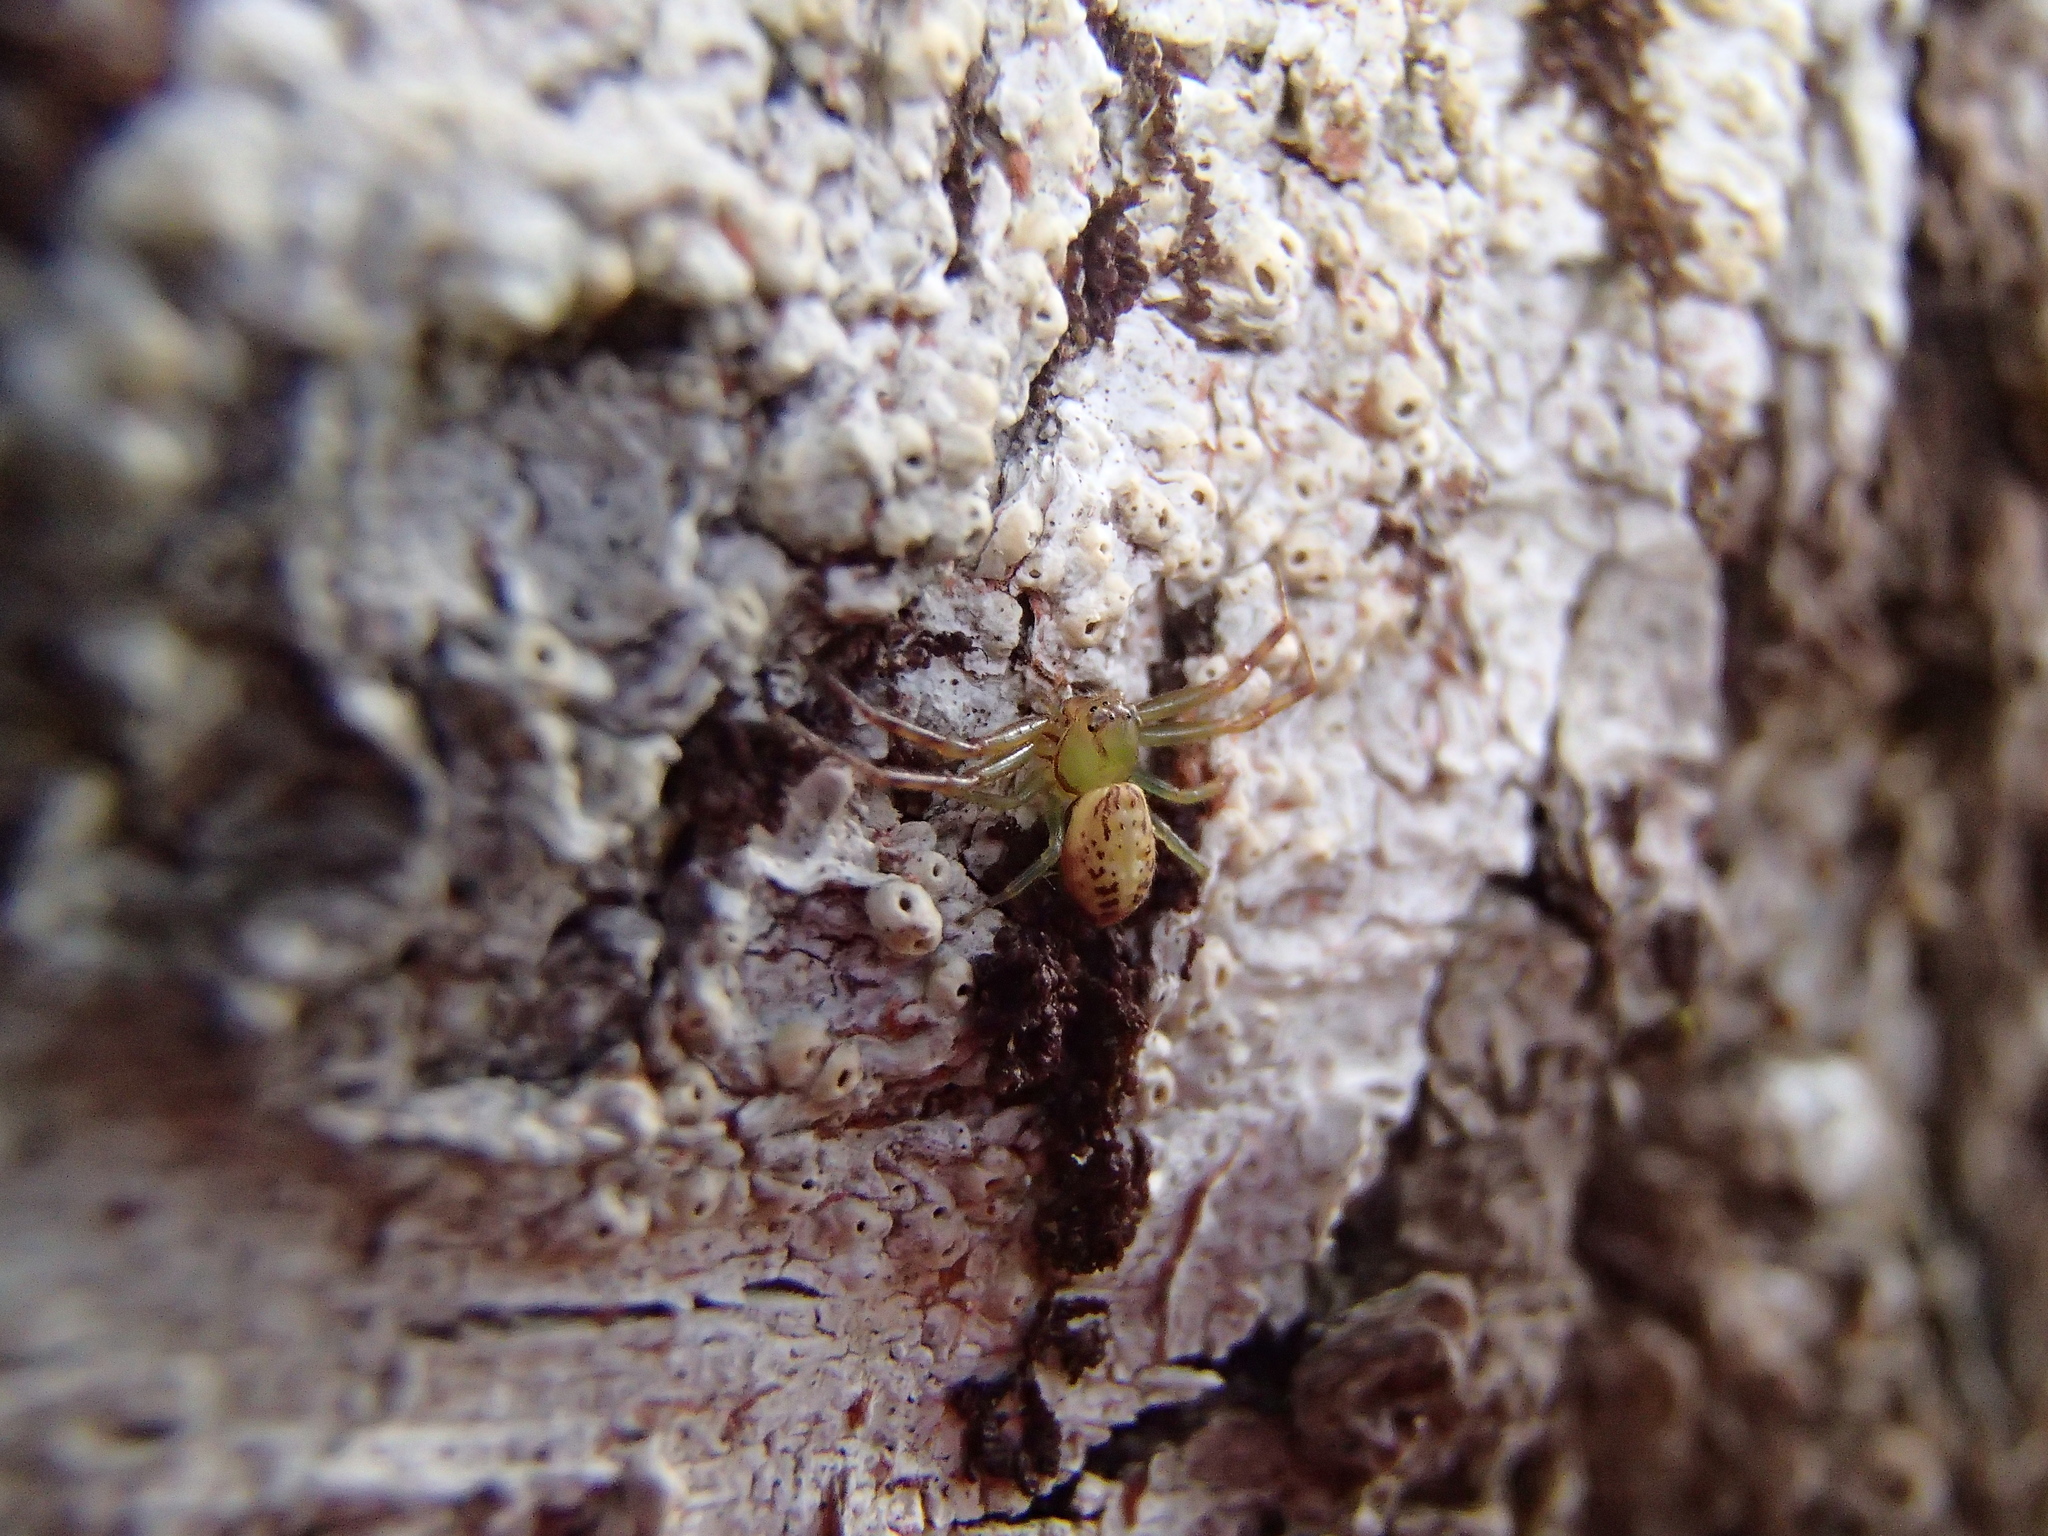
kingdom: Animalia
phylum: Arthropoda
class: Arachnida
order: Araneae
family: Thomisidae
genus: Diaea
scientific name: Diaea ambara
